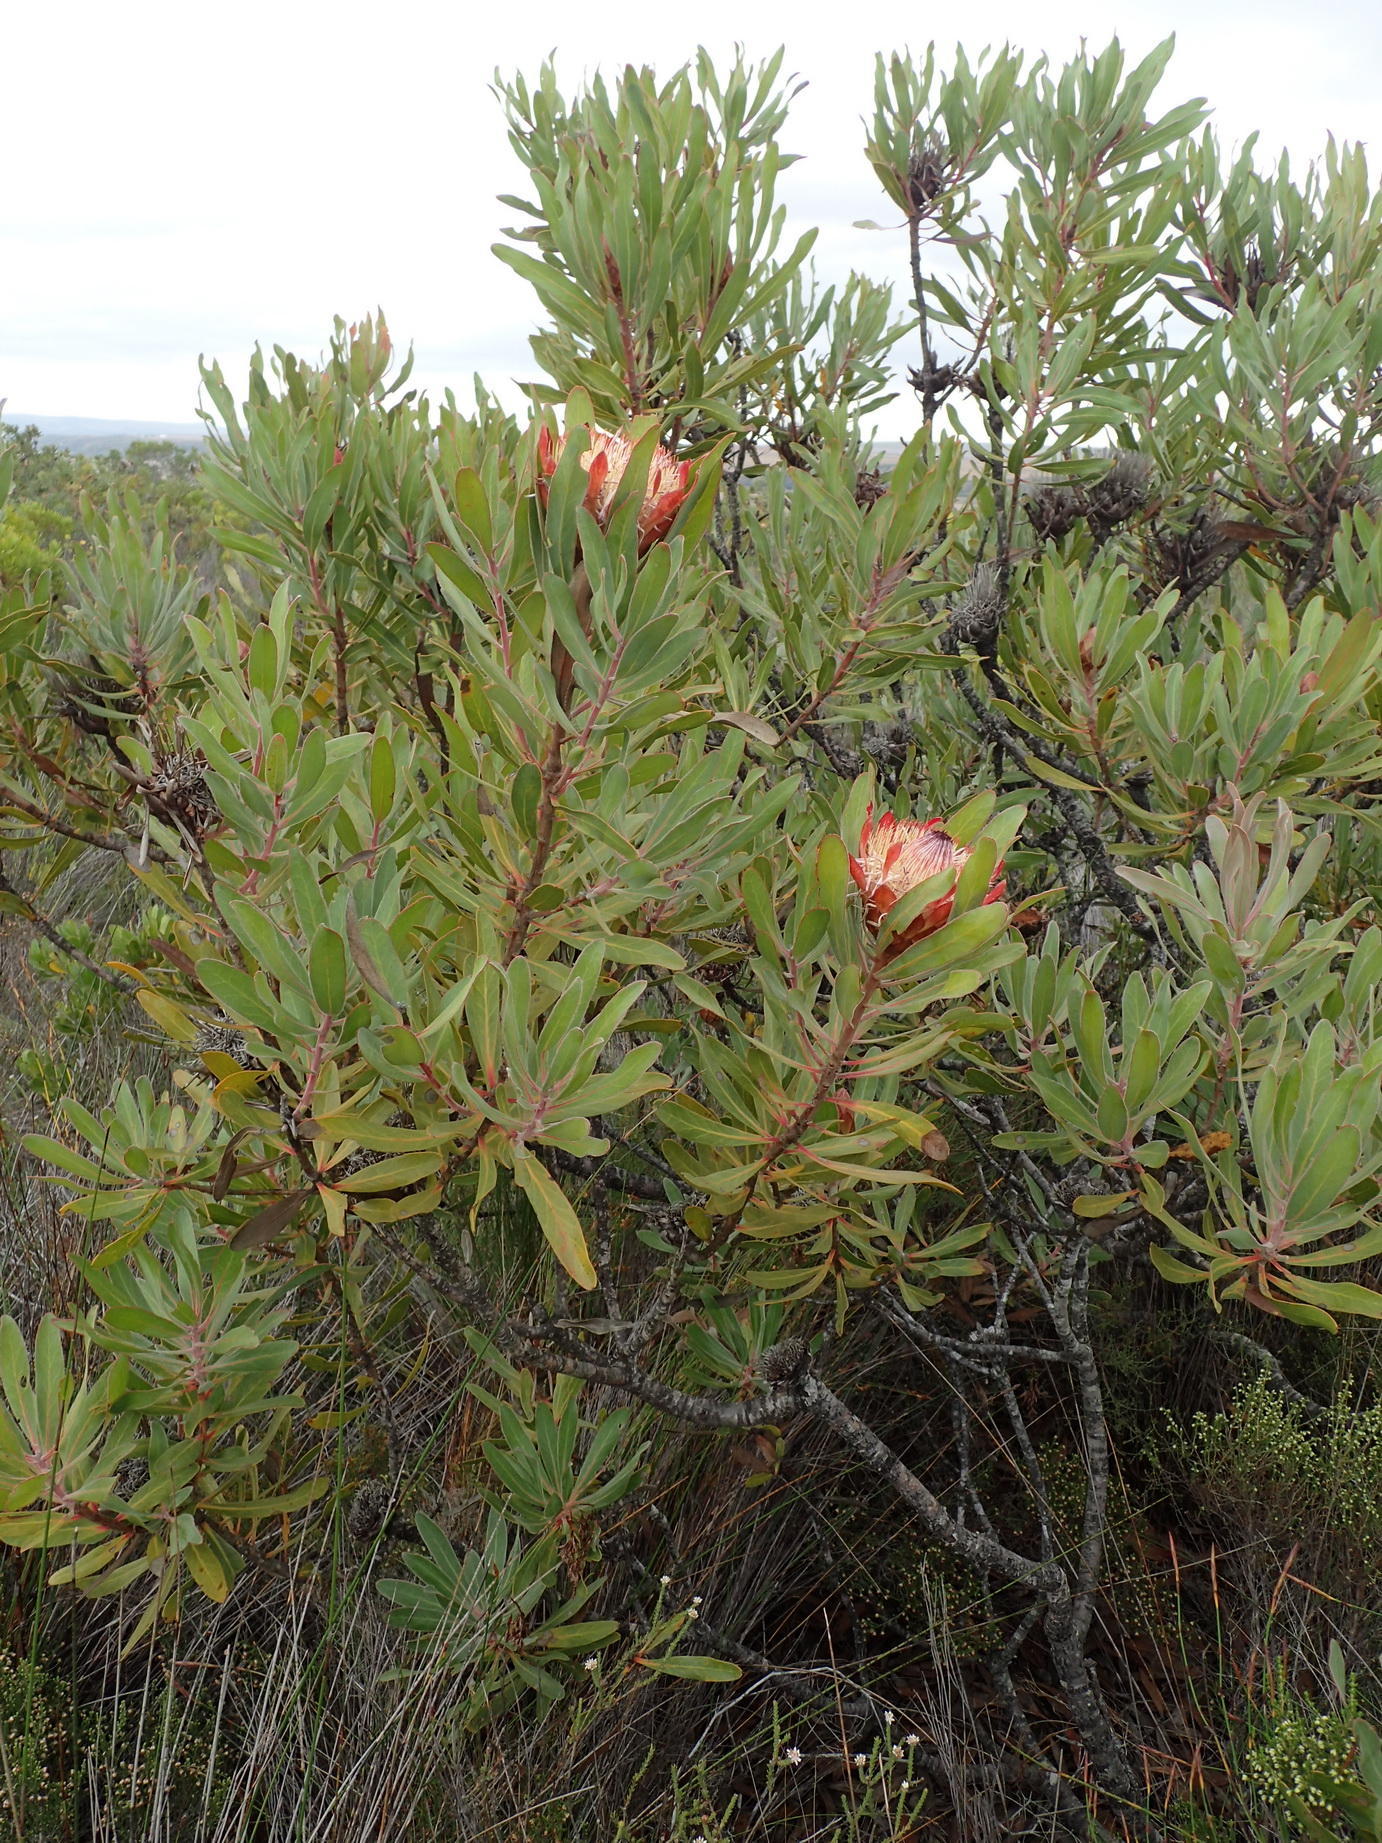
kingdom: Plantae
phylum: Tracheophyta
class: Magnoliopsida
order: Proteales
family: Proteaceae
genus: Protea
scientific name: Protea susannae
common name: Foetid-leaf sugarbush
